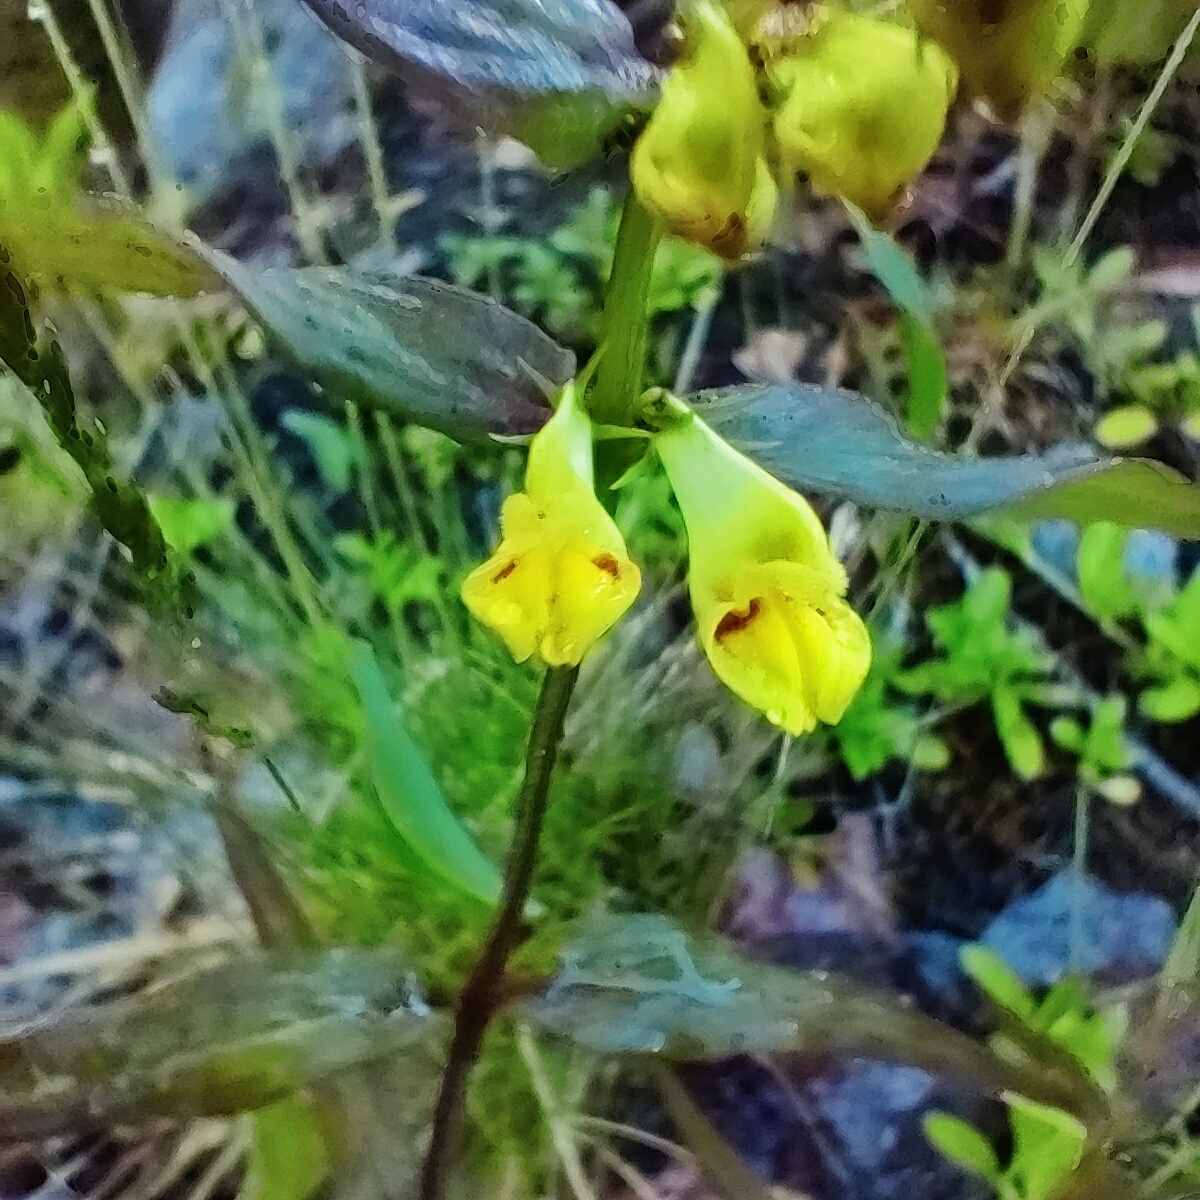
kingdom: Plantae
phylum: Tracheophyta
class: Magnoliopsida
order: Lamiales
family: Orobanchaceae
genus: Melampyrum
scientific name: Melampyrum pratense
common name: Common cow-wheat
